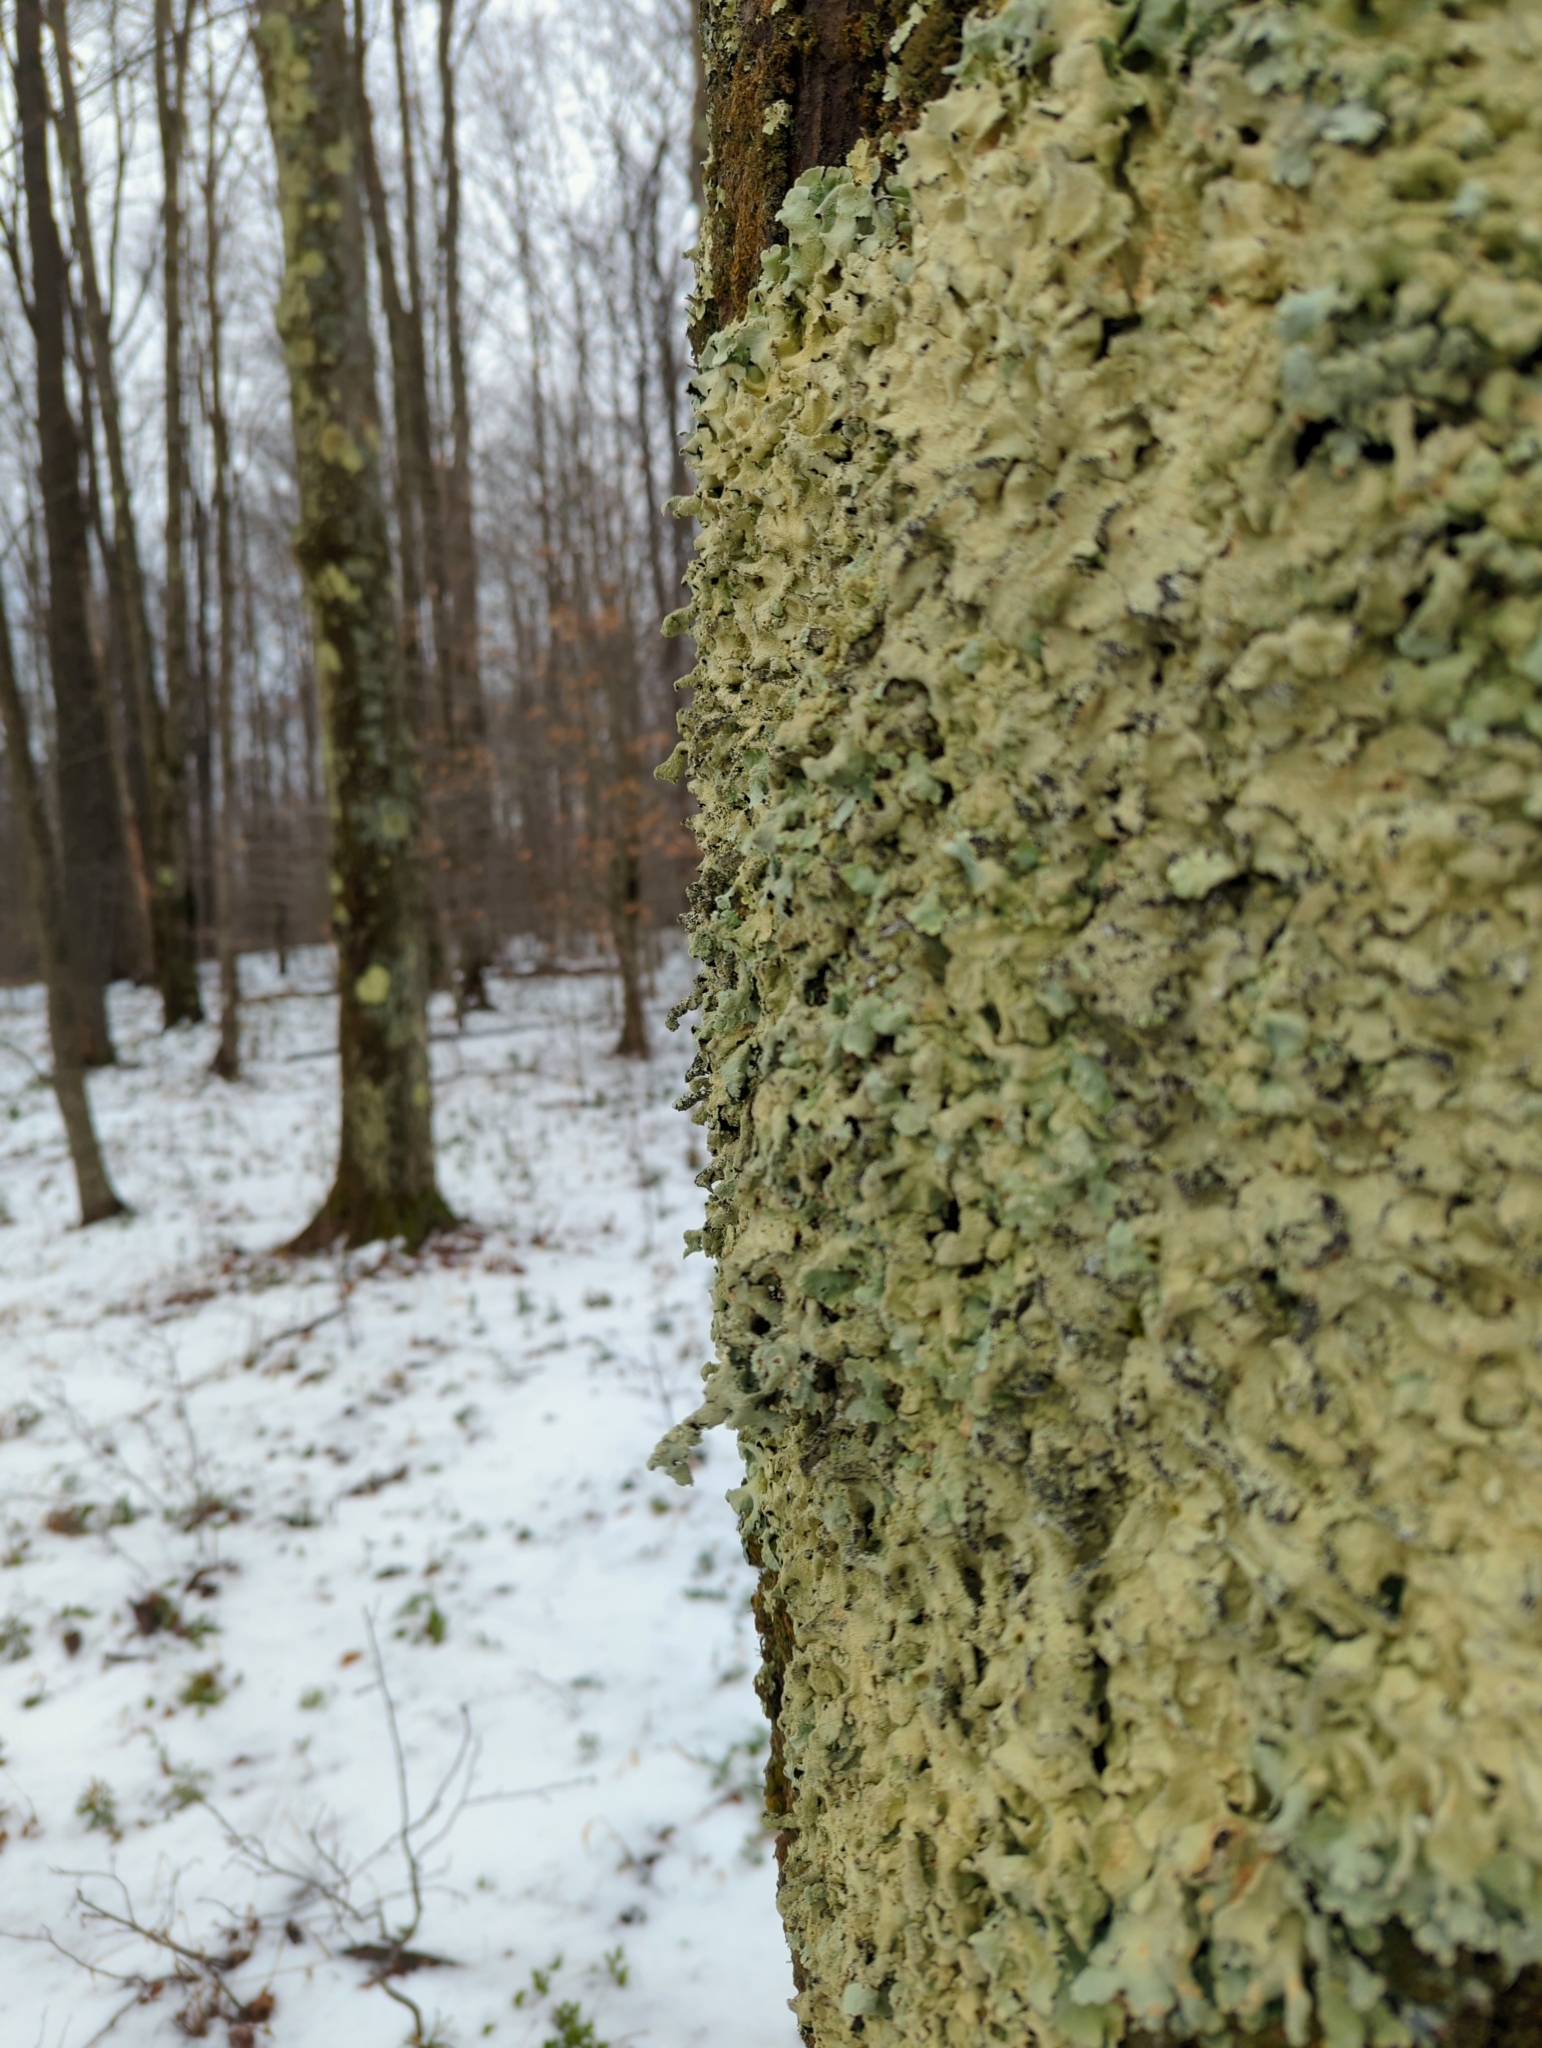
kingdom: Fungi
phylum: Ascomycota
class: Lecanoromycetes
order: Lecanorales
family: Parmeliaceae
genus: Flavoparmelia
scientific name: Flavoparmelia caperata
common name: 40-mile per hour lichen
